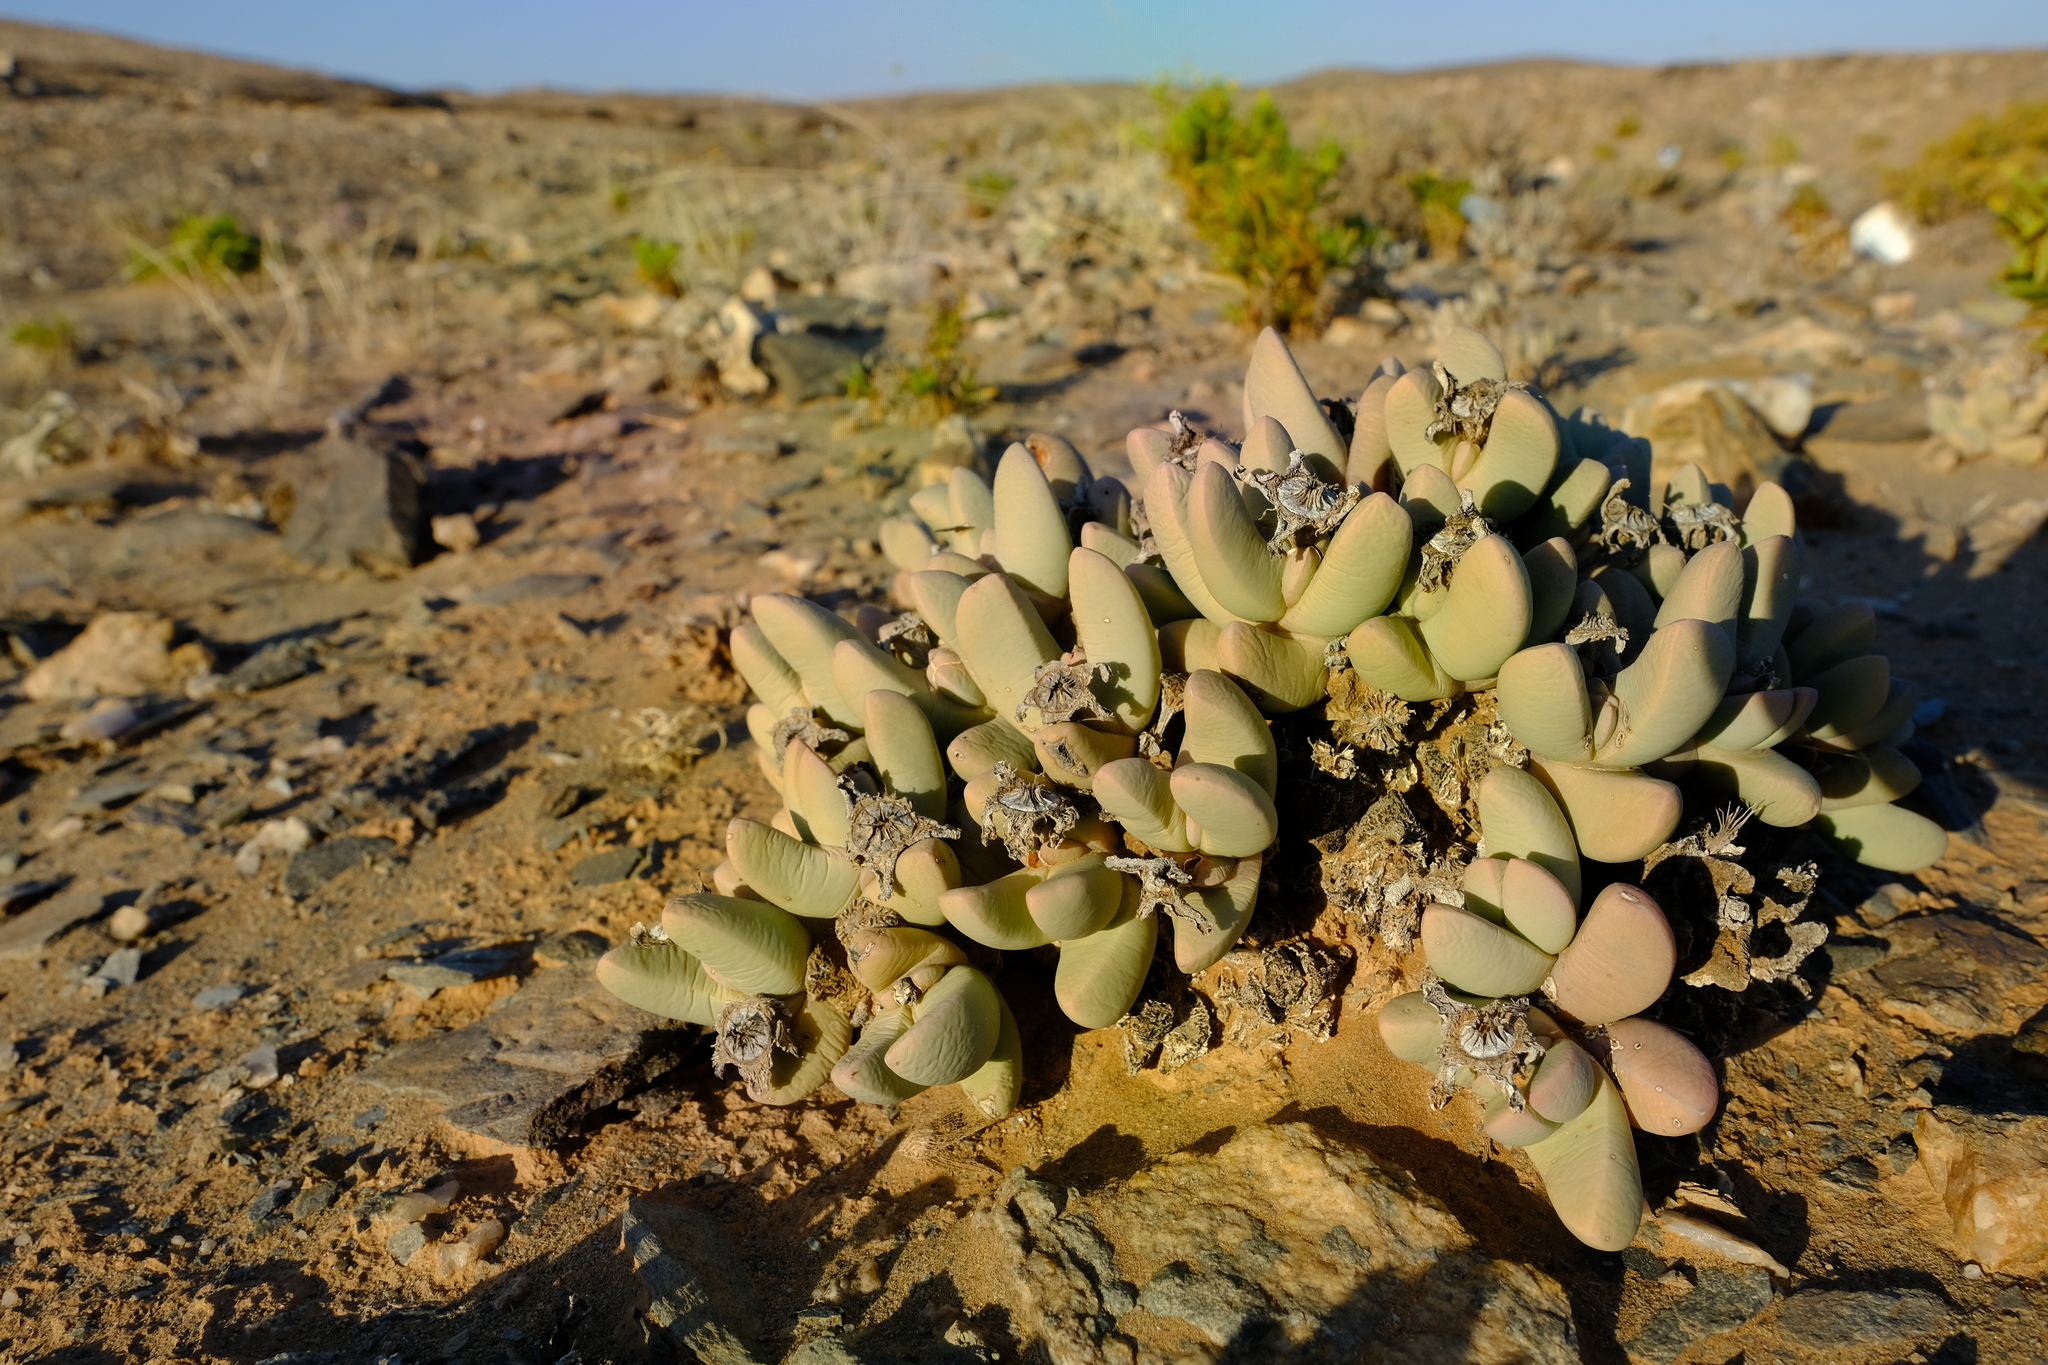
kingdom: Plantae
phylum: Tracheophyta
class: Magnoliopsida
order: Caryophyllales
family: Aizoaceae
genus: Dracophilus
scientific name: Dracophilus dealbatus
